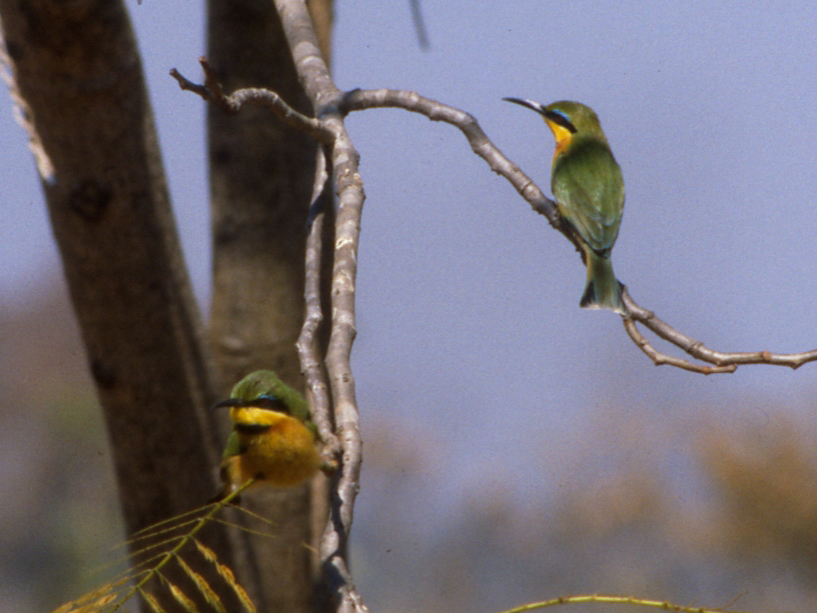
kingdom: Animalia
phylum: Chordata
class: Aves
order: Coraciiformes
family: Meropidae
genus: Merops
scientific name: Merops pusillus
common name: Little bee-eater
